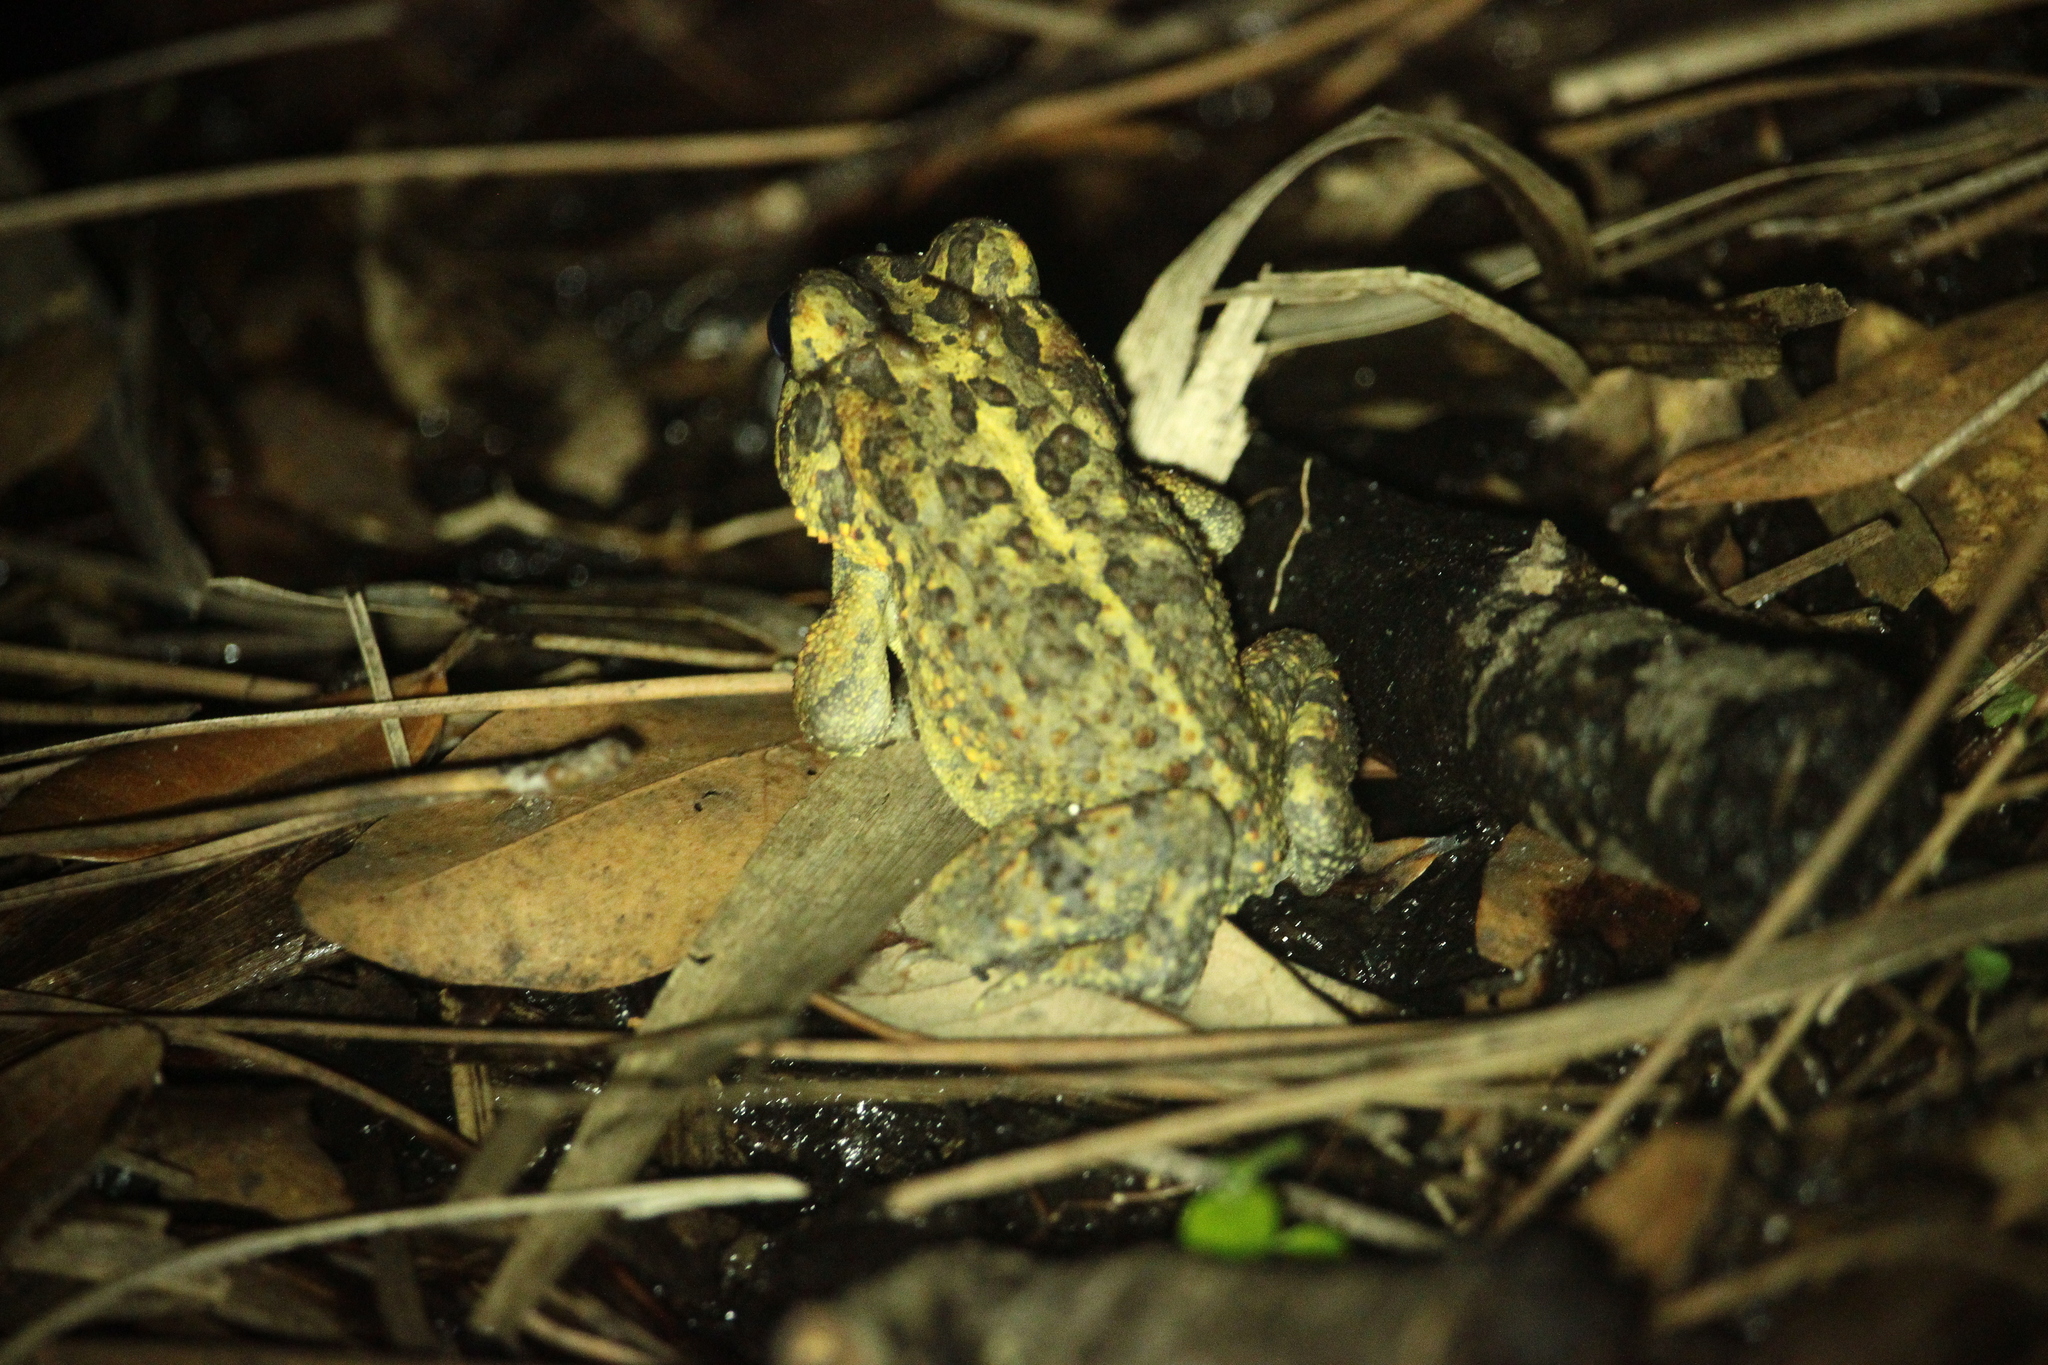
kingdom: Animalia
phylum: Chordata
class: Amphibia
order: Anura
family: Bufonidae
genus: Anaxyrus
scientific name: Anaxyrus terrestris
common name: Southern toad
